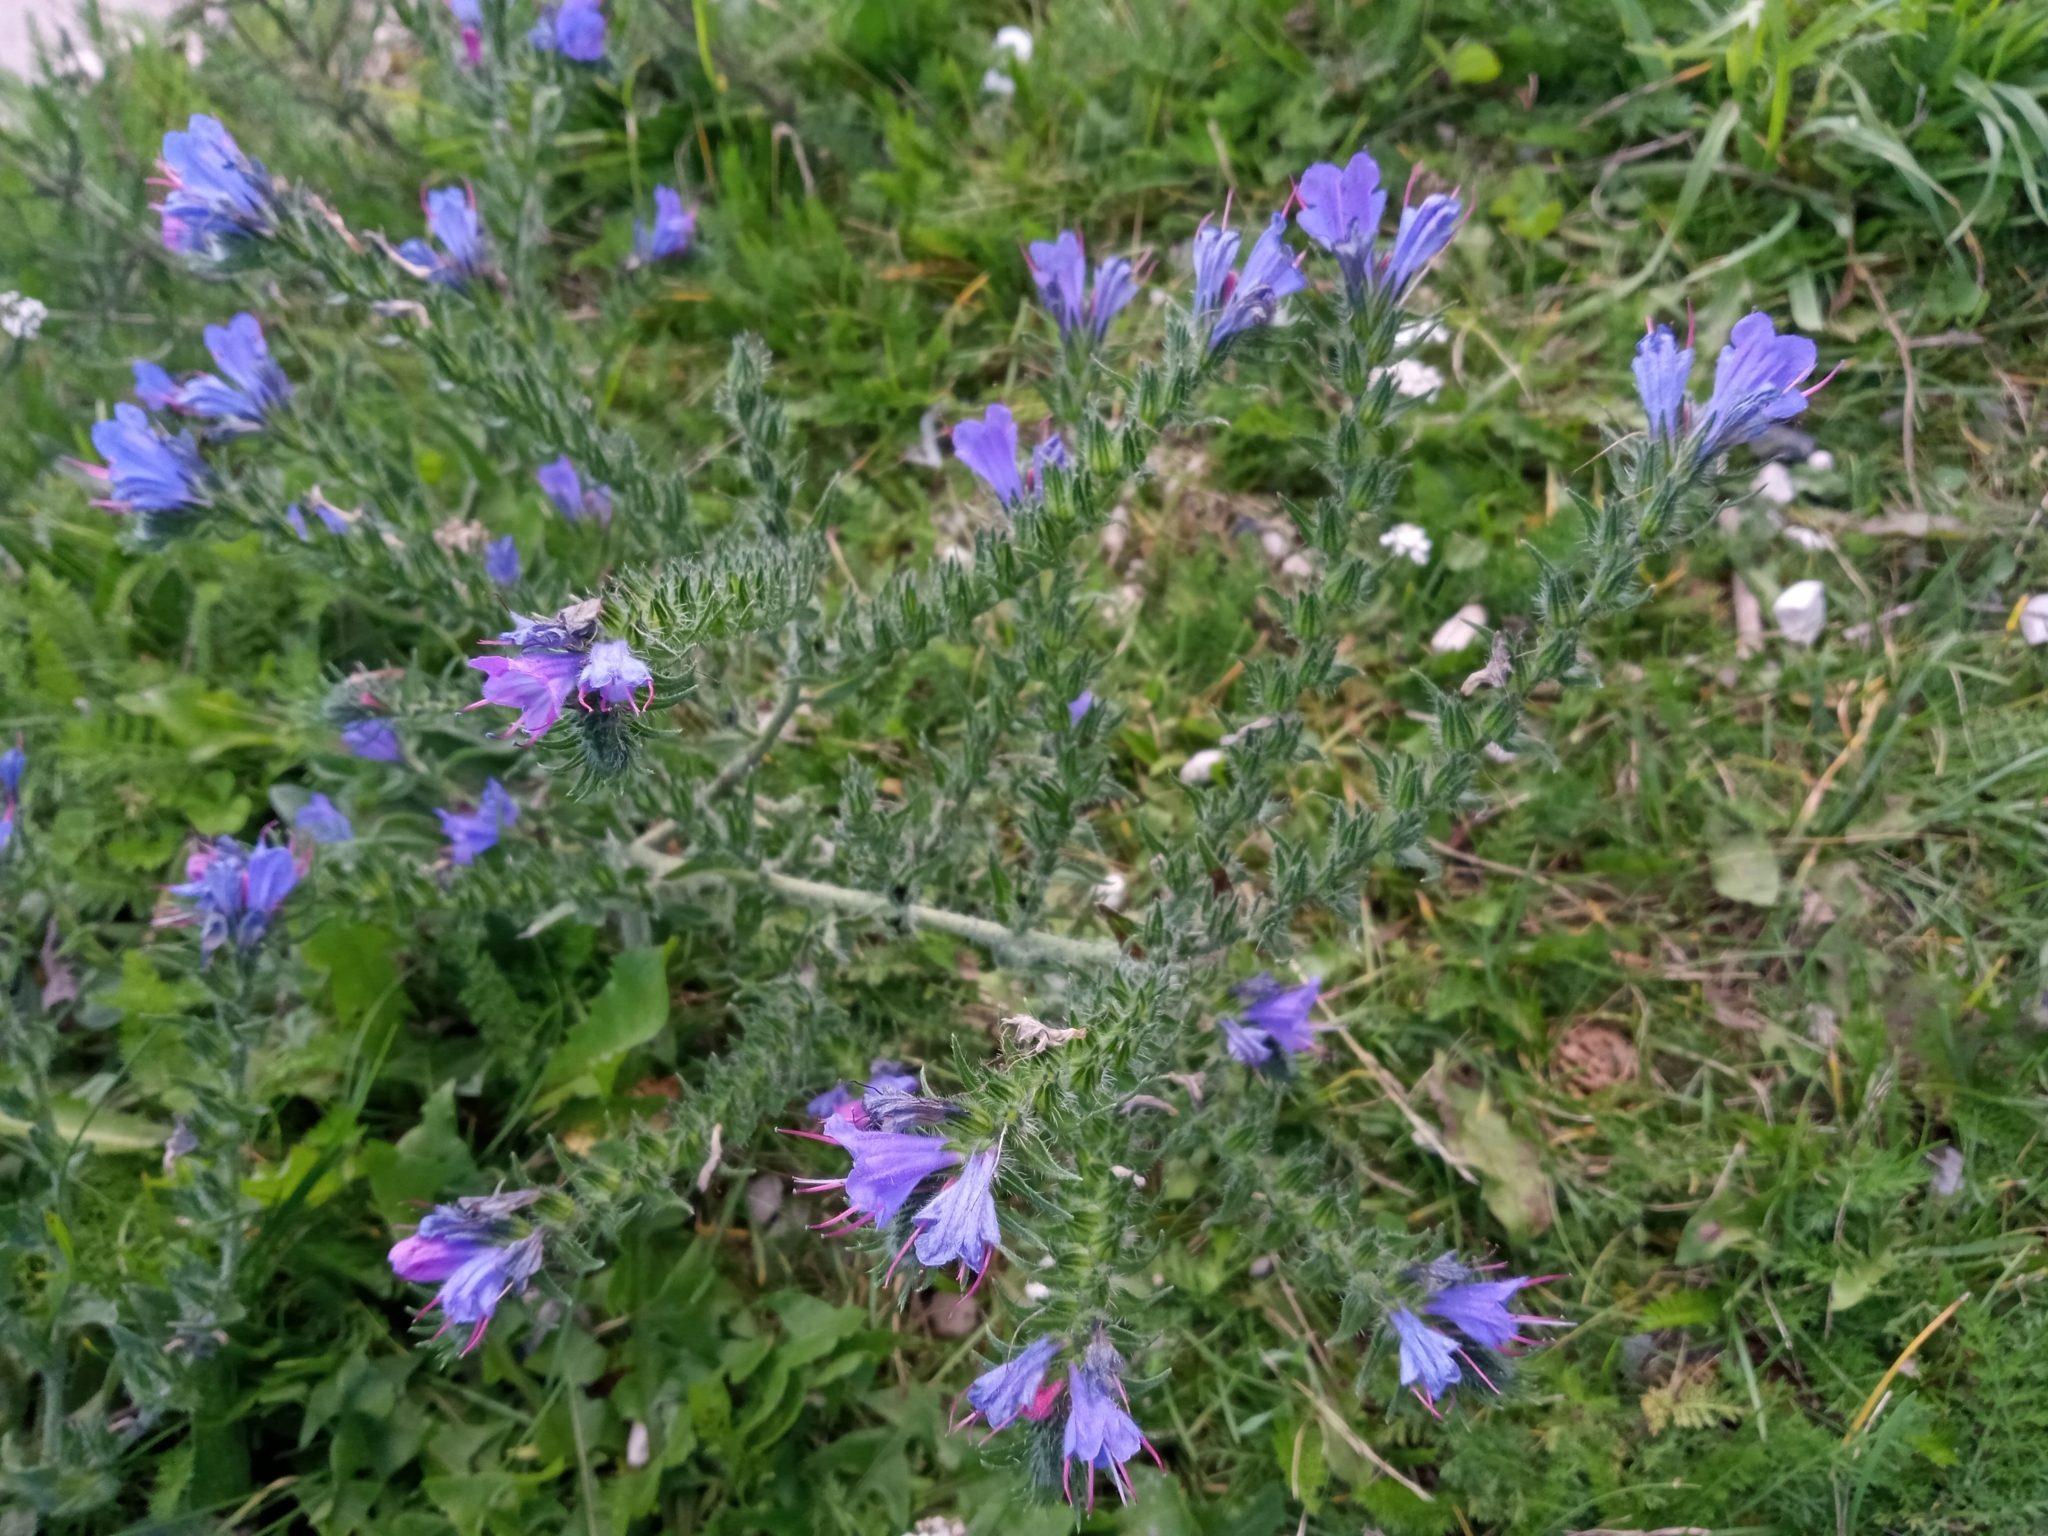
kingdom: Plantae
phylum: Tracheophyta
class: Magnoliopsida
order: Boraginales
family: Boraginaceae
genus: Echium
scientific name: Echium vulgare
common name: Common viper's bugloss
